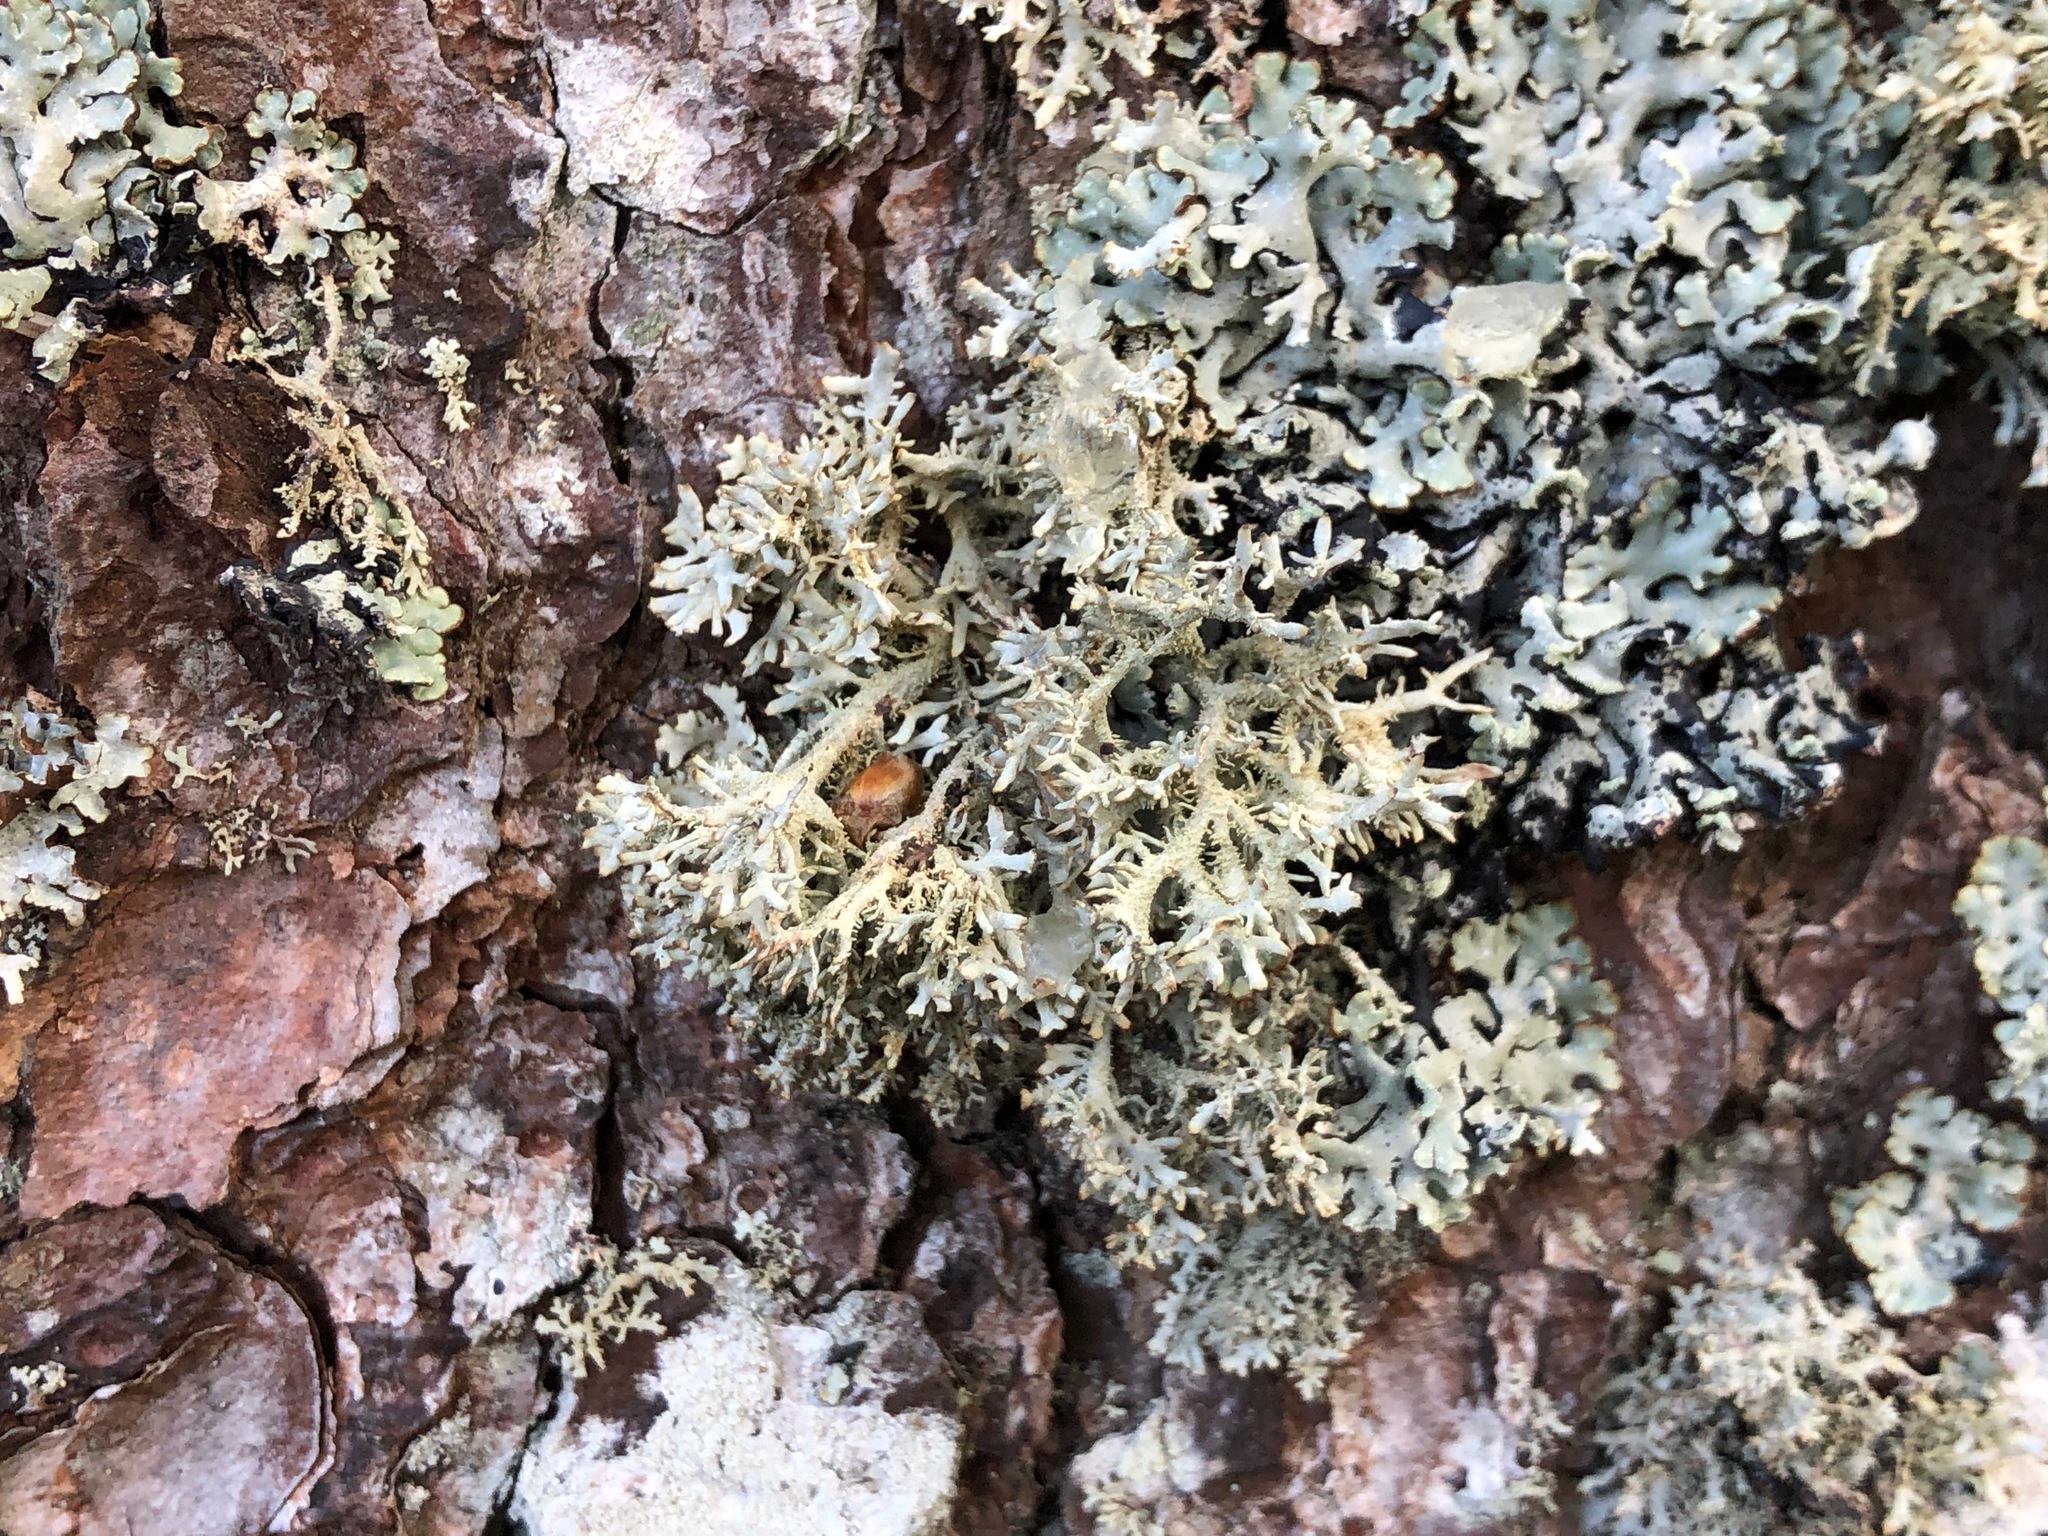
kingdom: Fungi
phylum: Ascomycota
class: Lecanoromycetes
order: Lecanorales
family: Parmeliaceae
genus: Pseudevernia
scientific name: Pseudevernia furfuracea
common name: Tree moss
